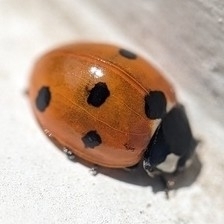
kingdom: Animalia
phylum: Arthropoda
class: Insecta
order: Coleoptera
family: Coccinellidae
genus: Coccinella
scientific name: Coccinella septempunctata
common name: Sevenspotted lady beetle
